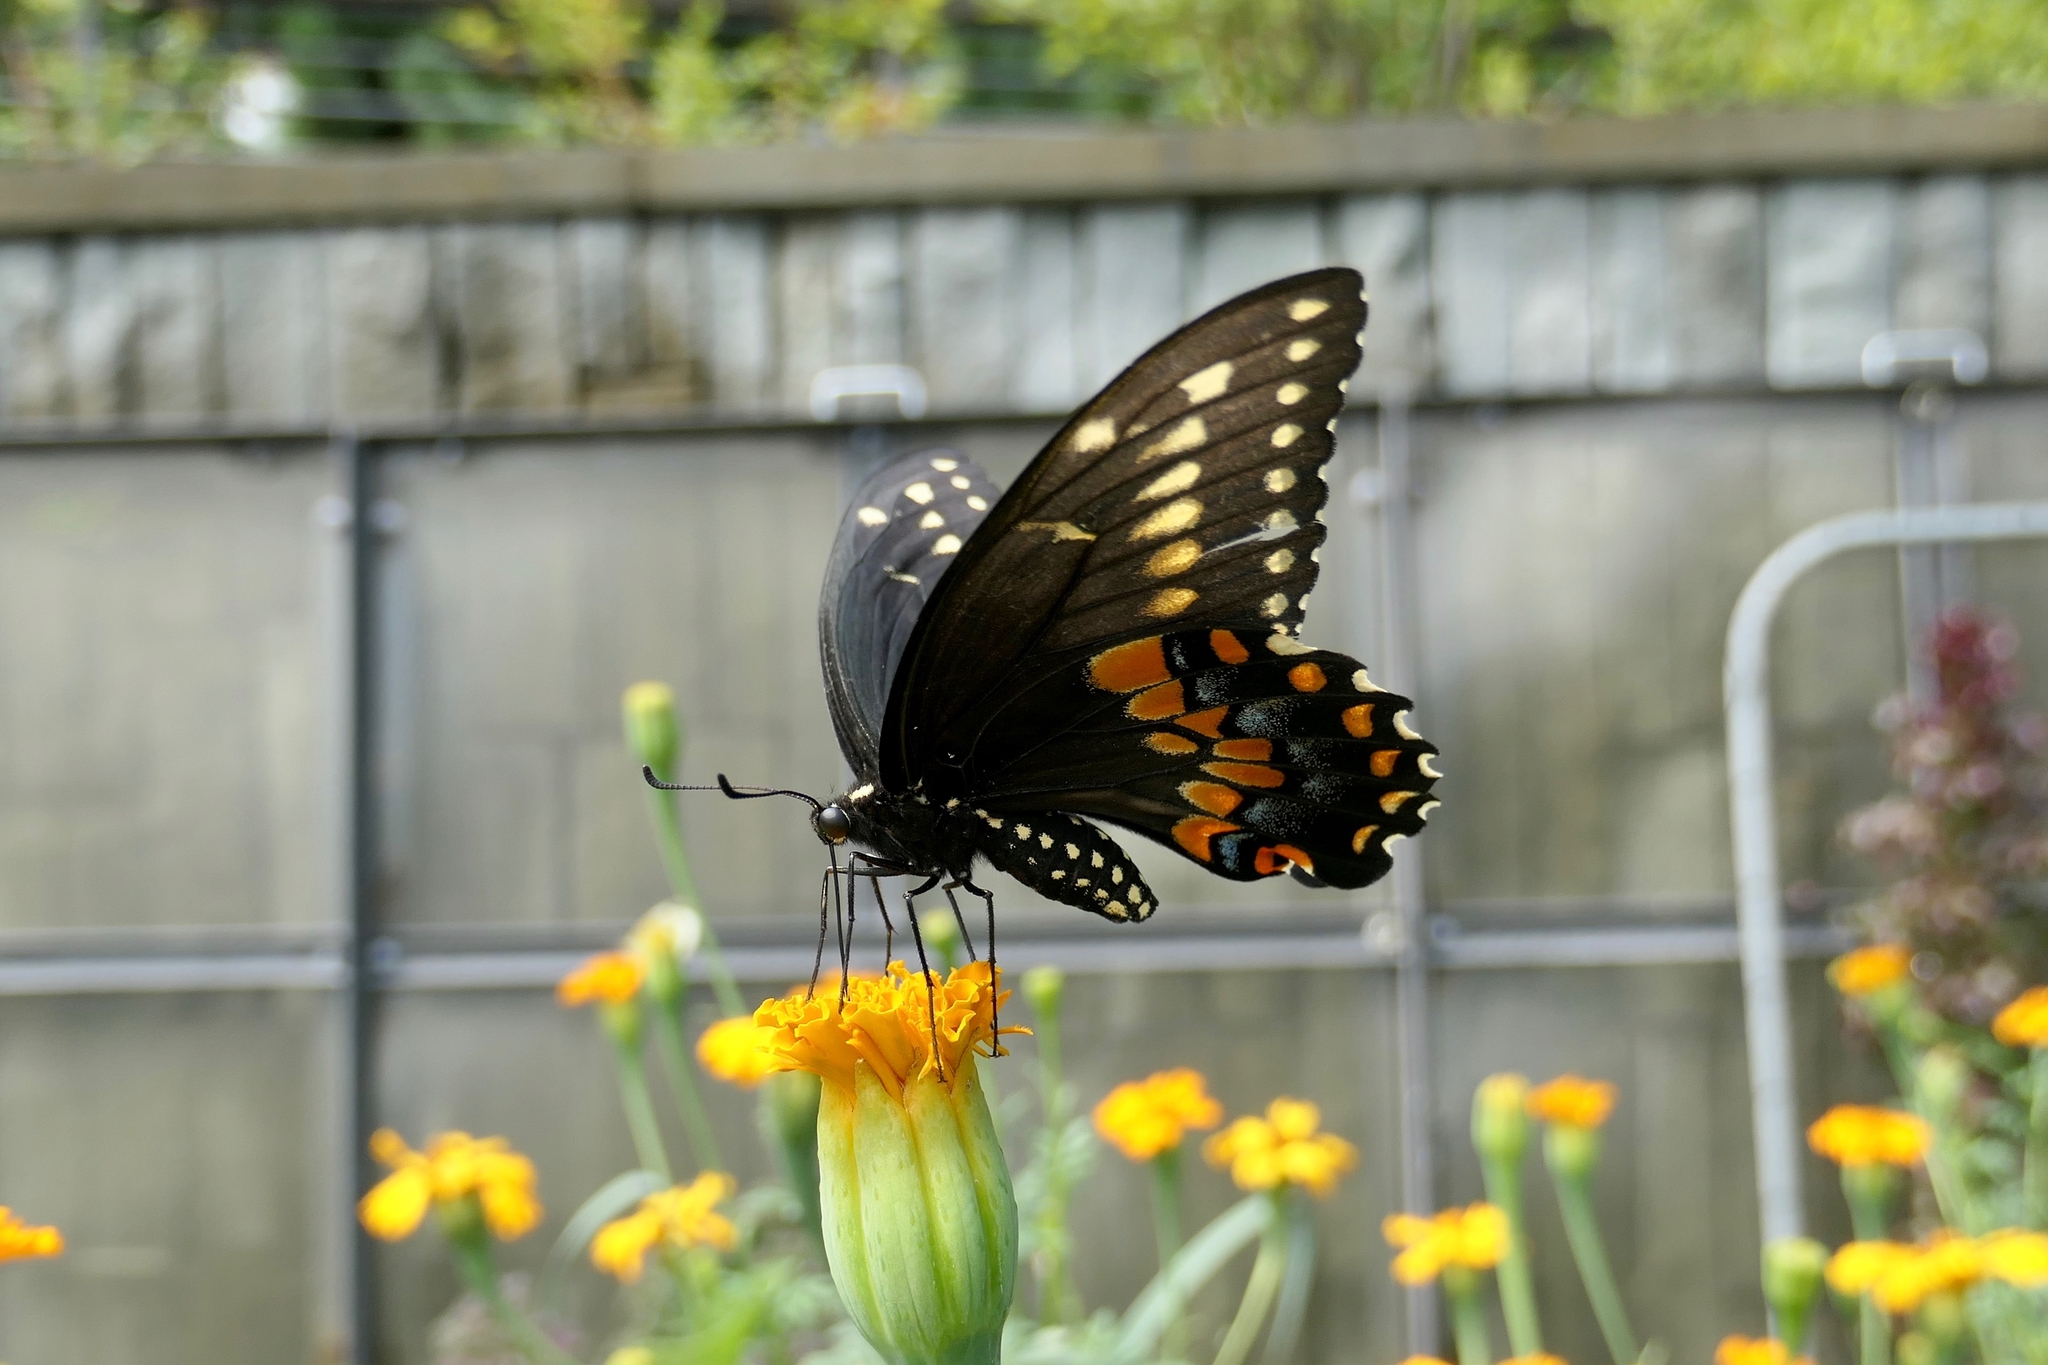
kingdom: Animalia
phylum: Arthropoda
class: Insecta
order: Lepidoptera
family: Papilionidae
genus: Papilio
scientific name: Papilio polyxenes
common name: Black swallowtail
